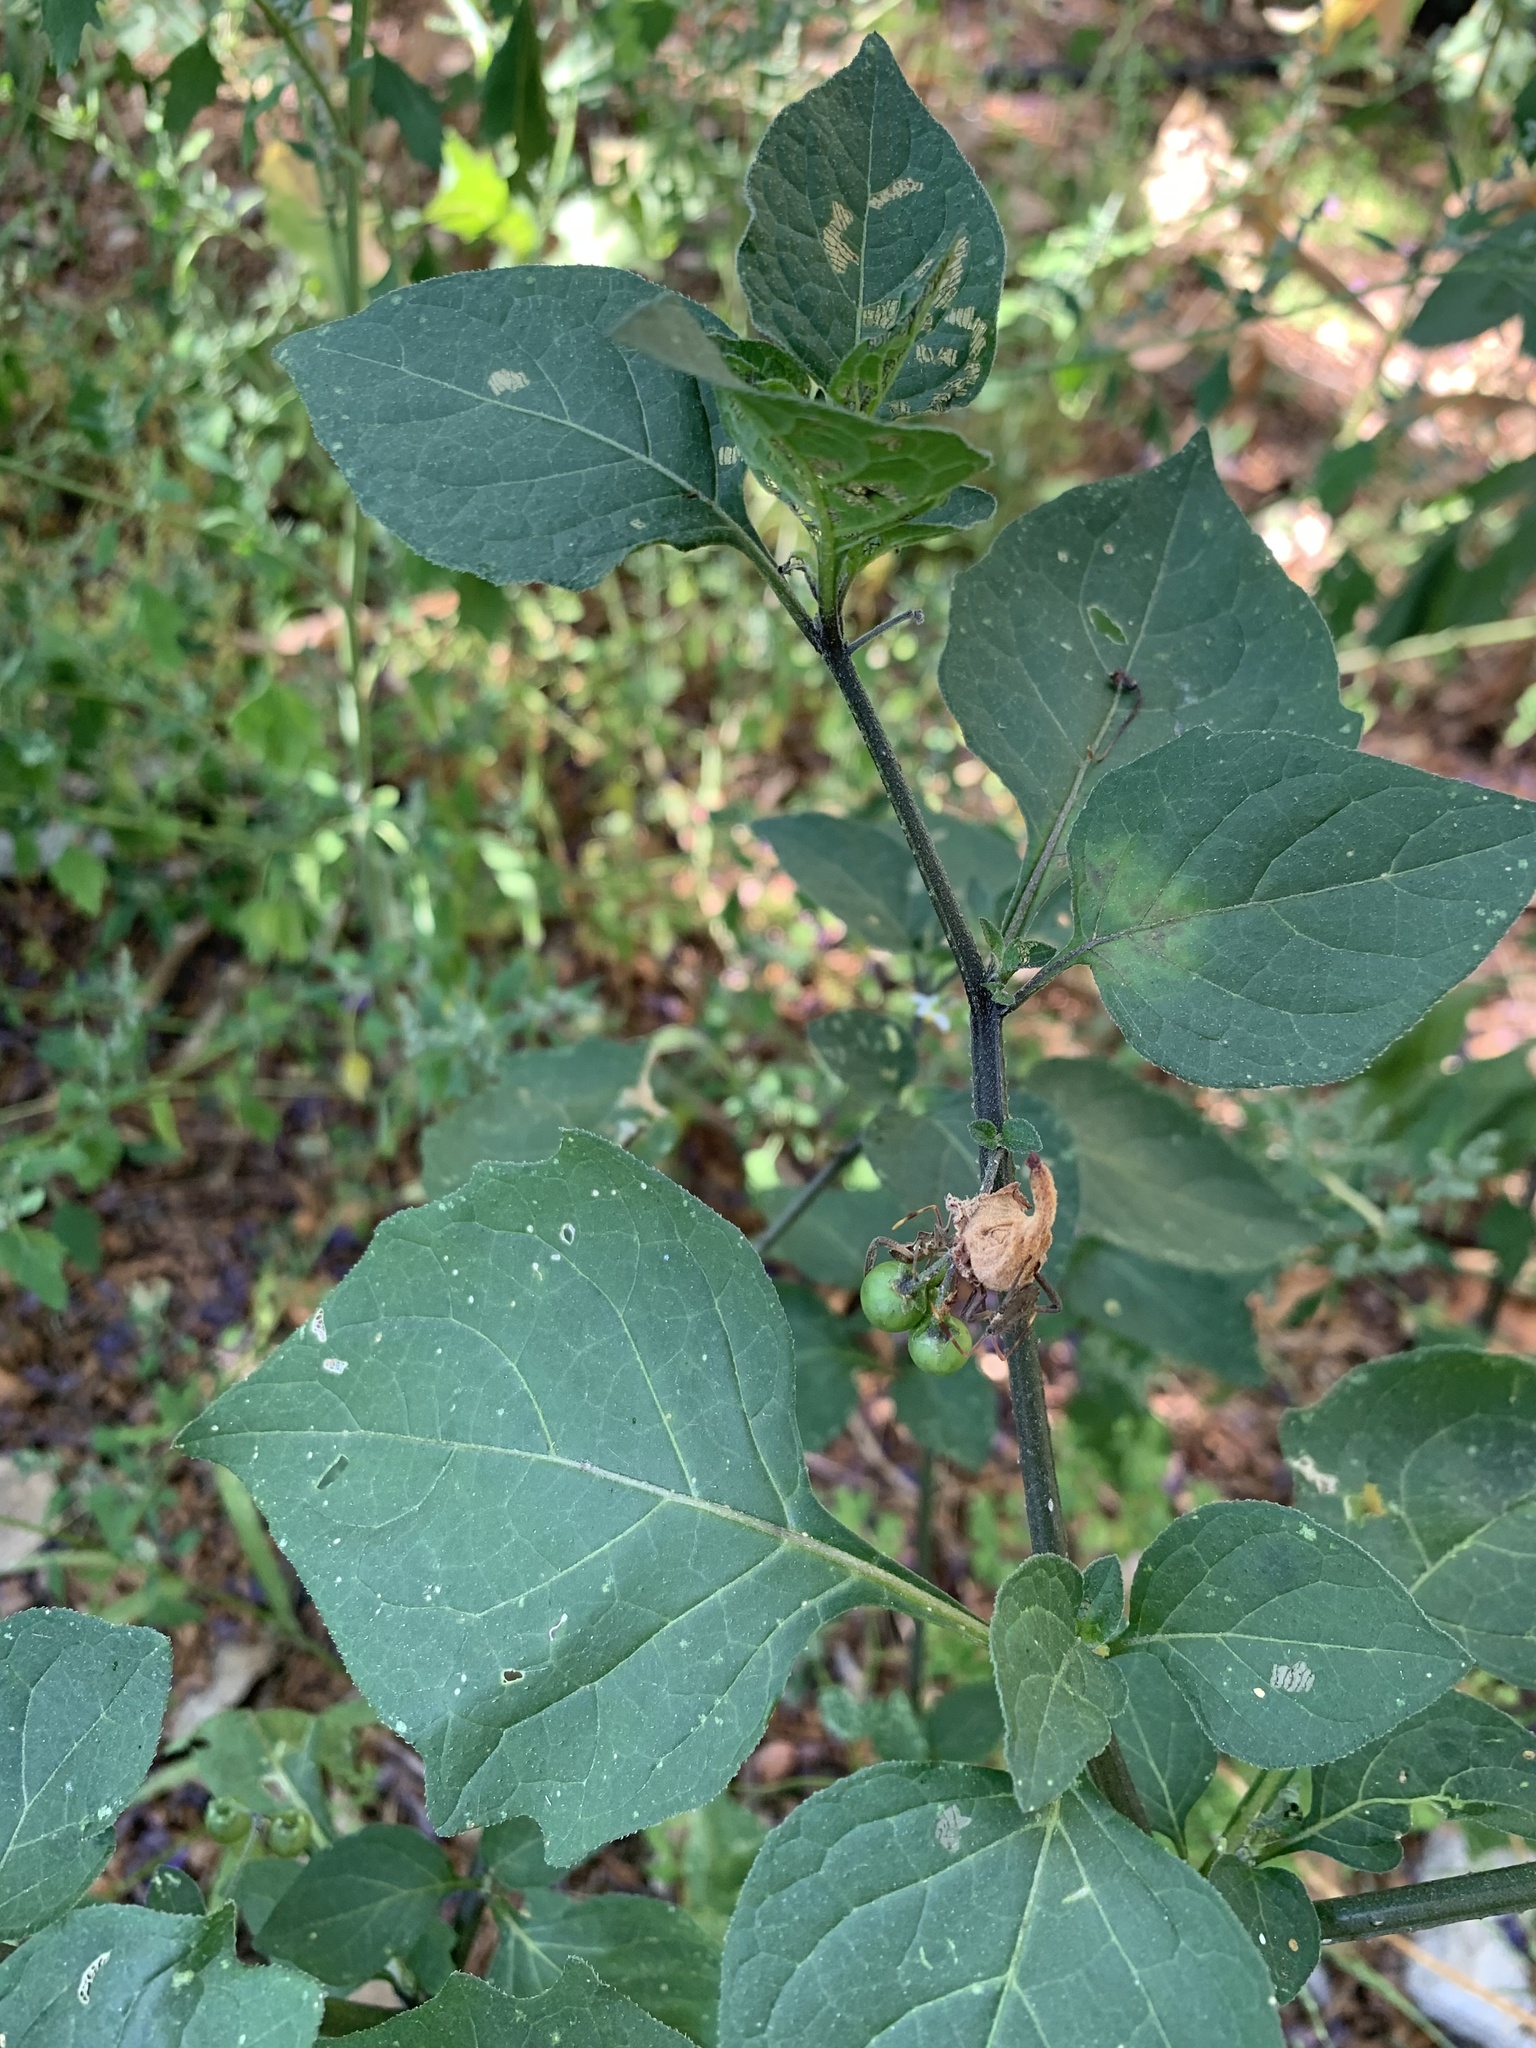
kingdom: Plantae
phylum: Tracheophyta
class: Magnoliopsida
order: Solanales
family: Solanaceae
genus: Solanum
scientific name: Solanum nigrum
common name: Black nightshade
